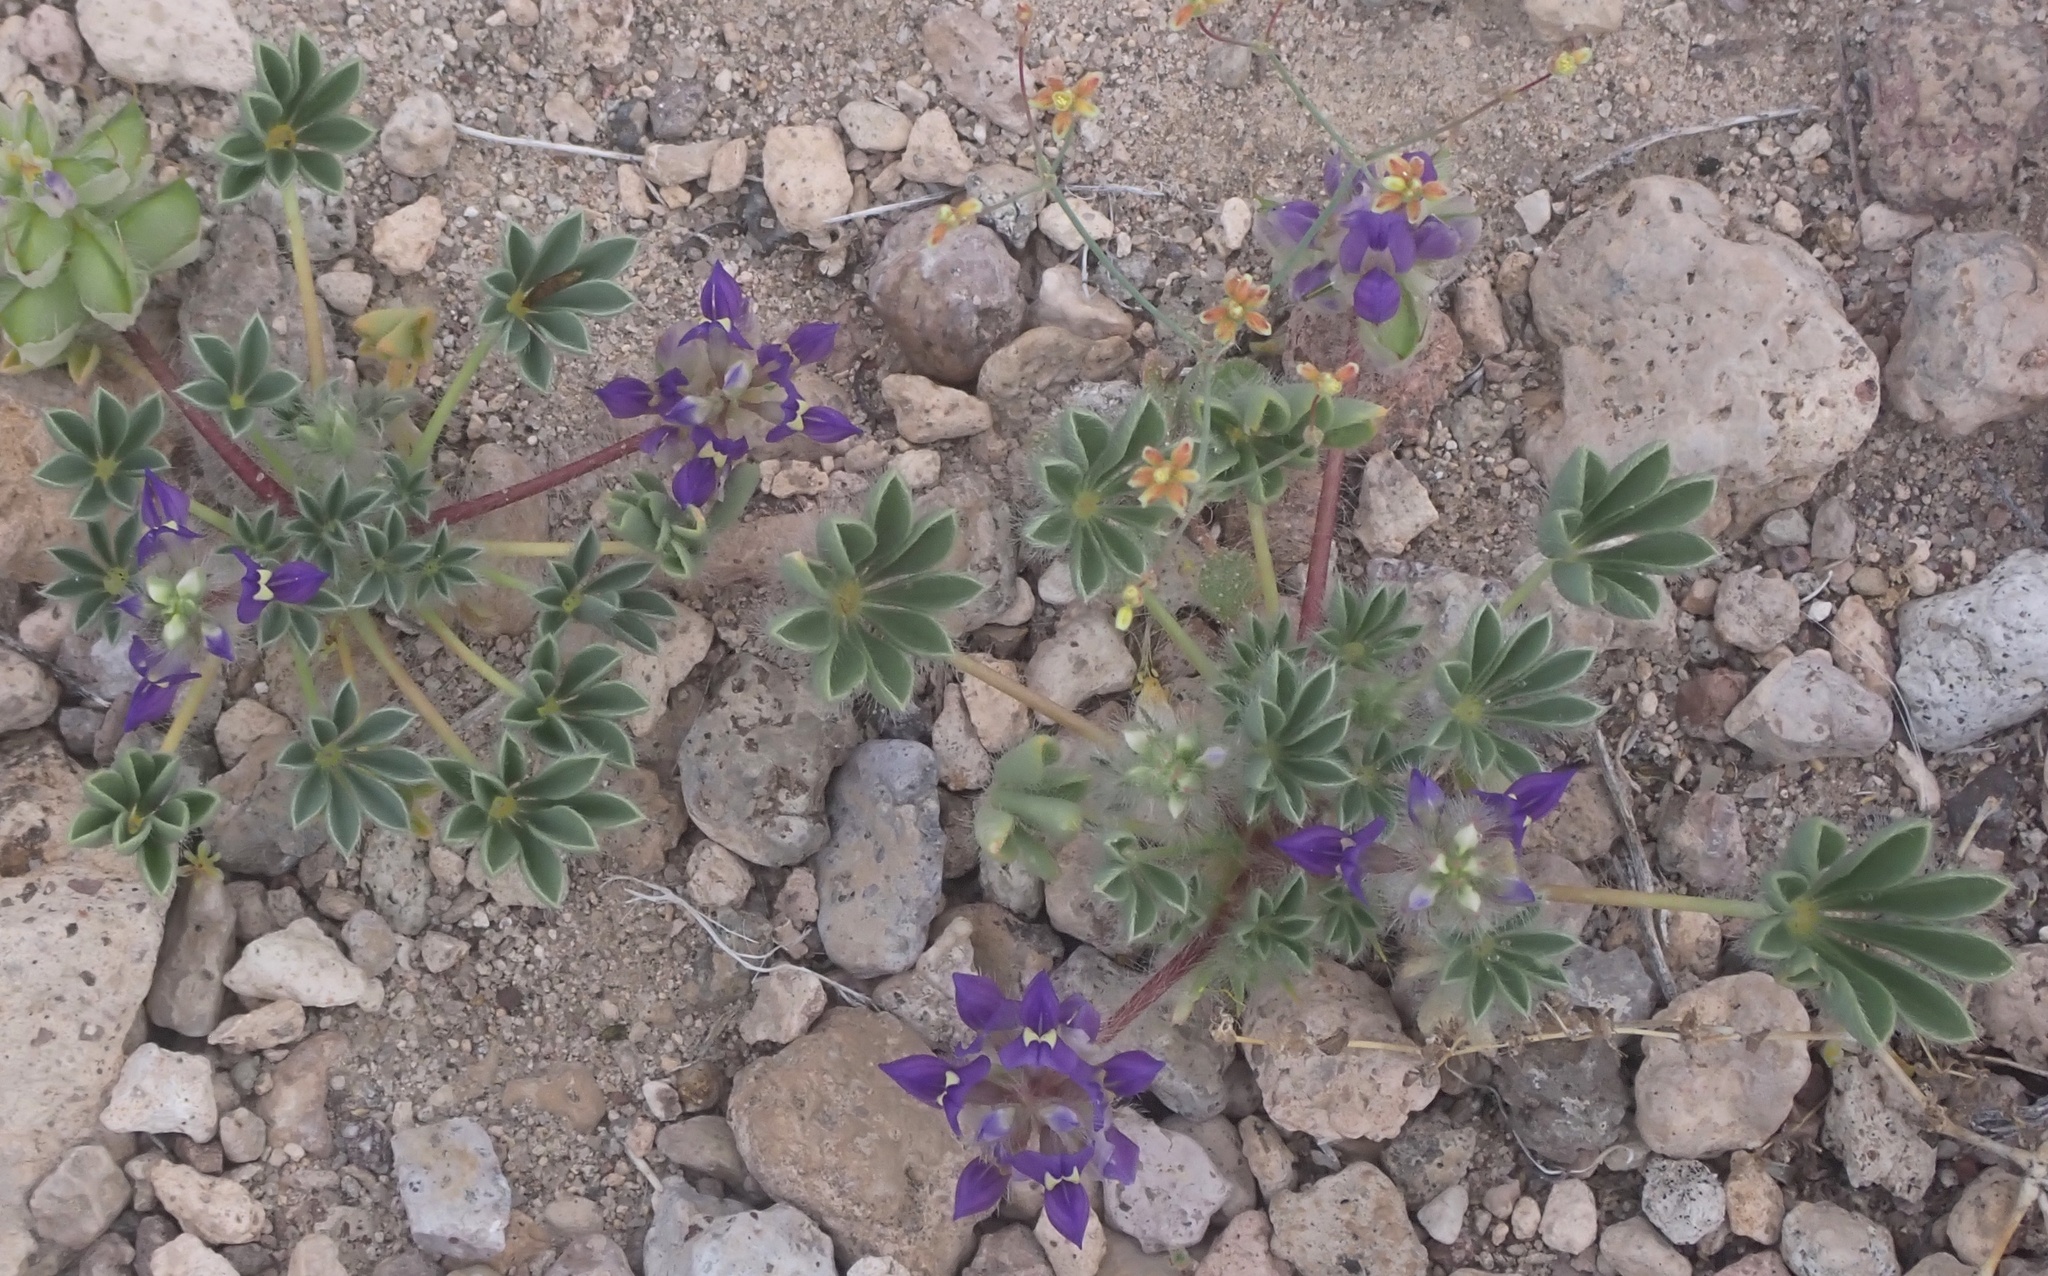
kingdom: Plantae
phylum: Tracheophyta
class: Magnoliopsida
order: Fabales
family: Fabaceae
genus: Lupinus
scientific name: Lupinus flavoculatus
